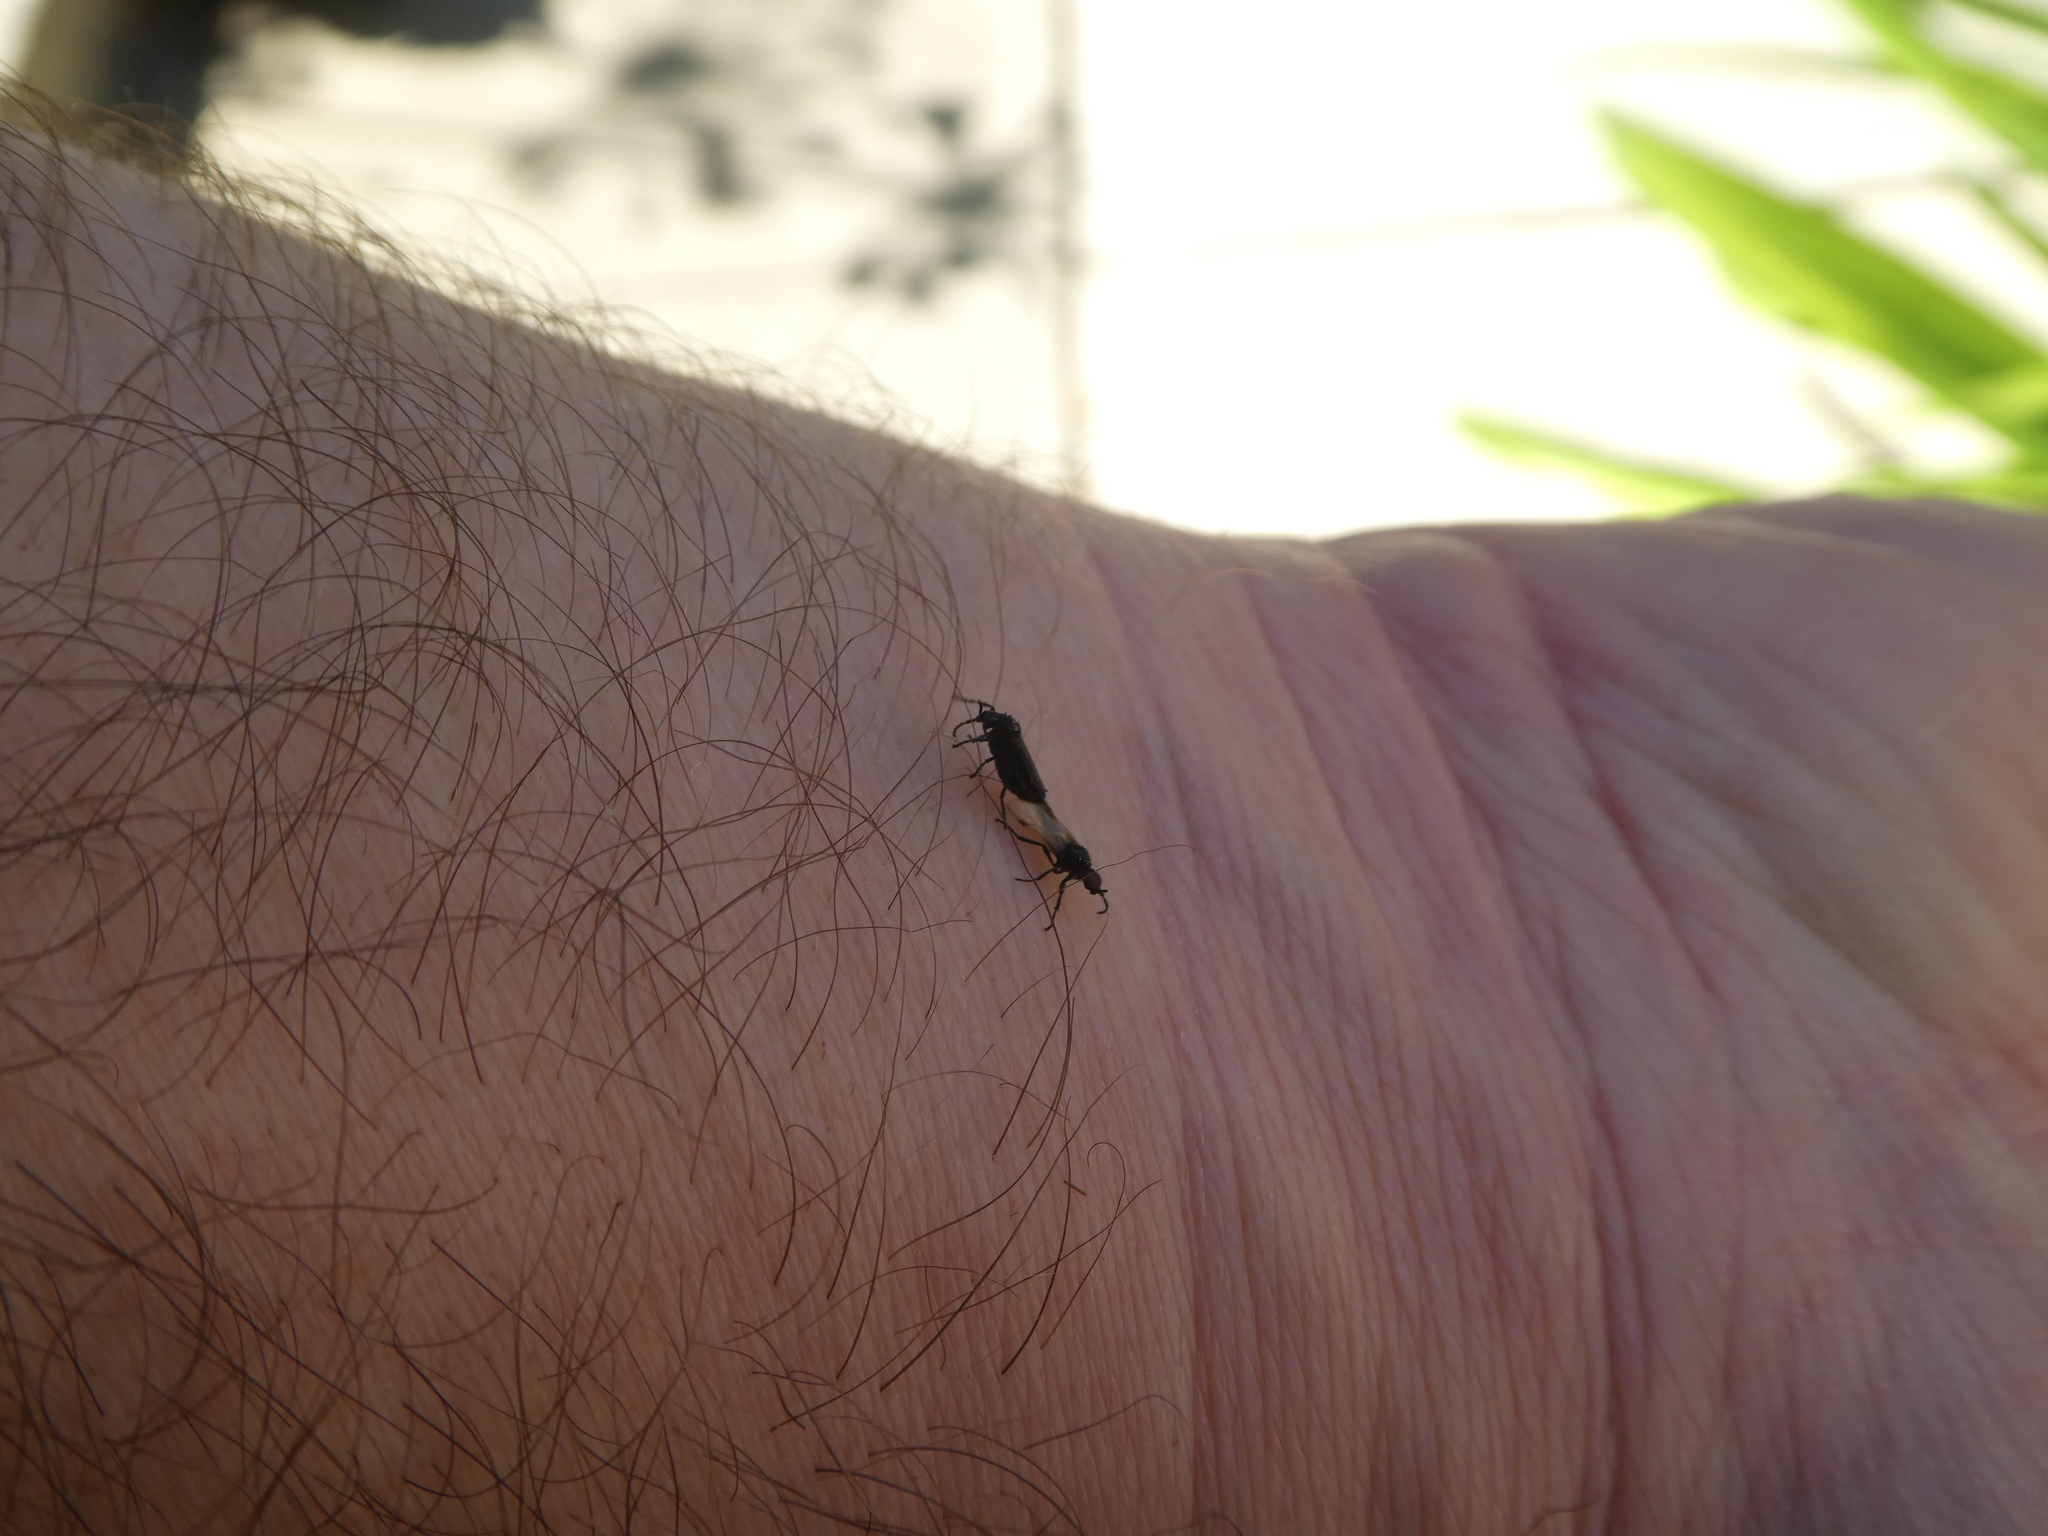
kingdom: Animalia
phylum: Arthropoda
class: Insecta
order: Diptera
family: Bibionidae
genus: Dilophus
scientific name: Dilophus orbatus
